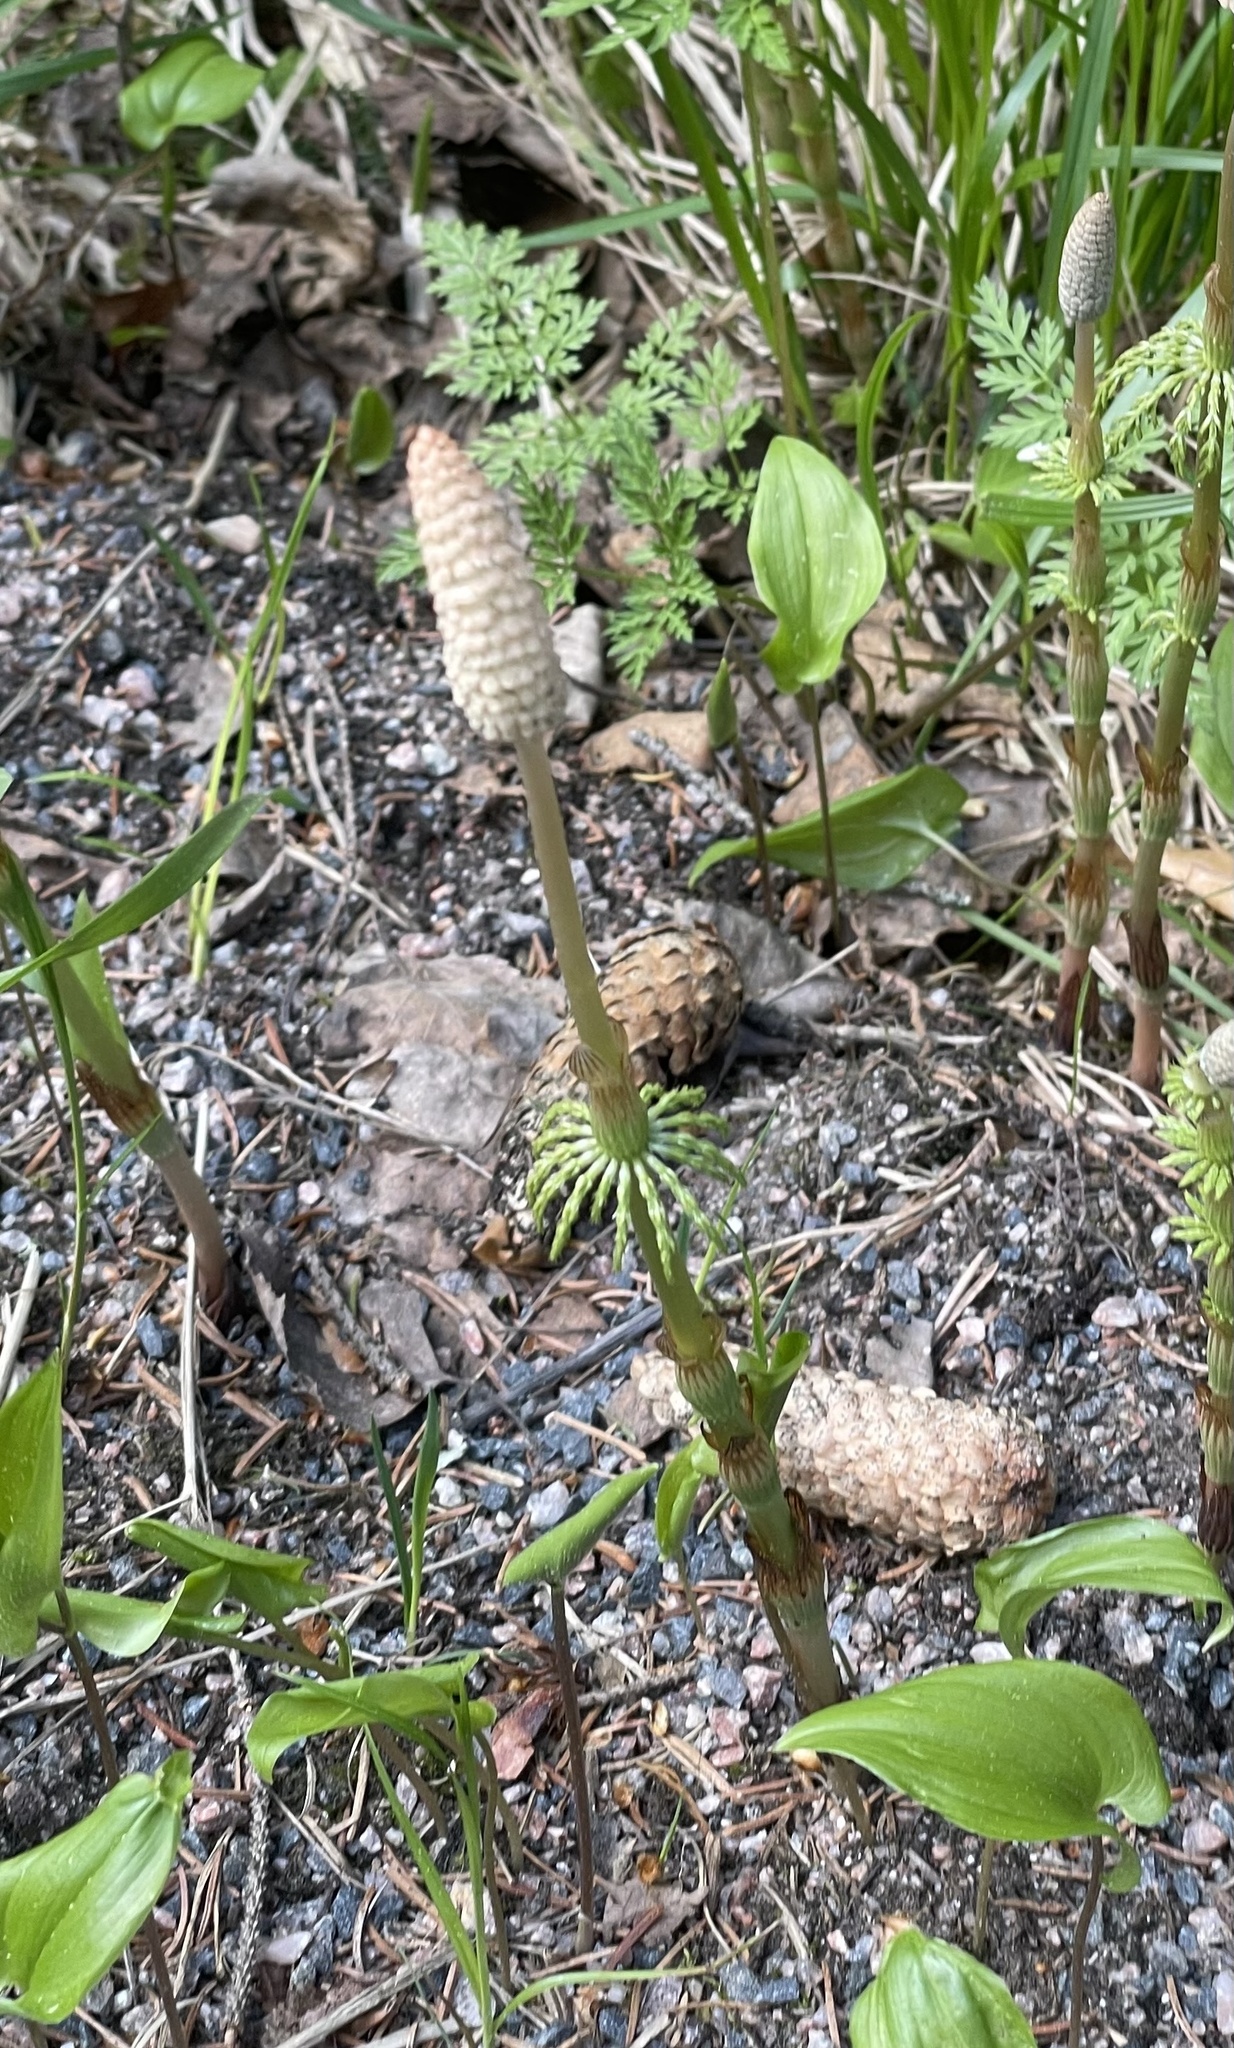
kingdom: Plantae
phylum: Tracheophyta
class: Polypodiopsida
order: Equisetales
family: Equisetaceae
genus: Equisetum
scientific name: Equisetum sylvaticum
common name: Wood horsetail
